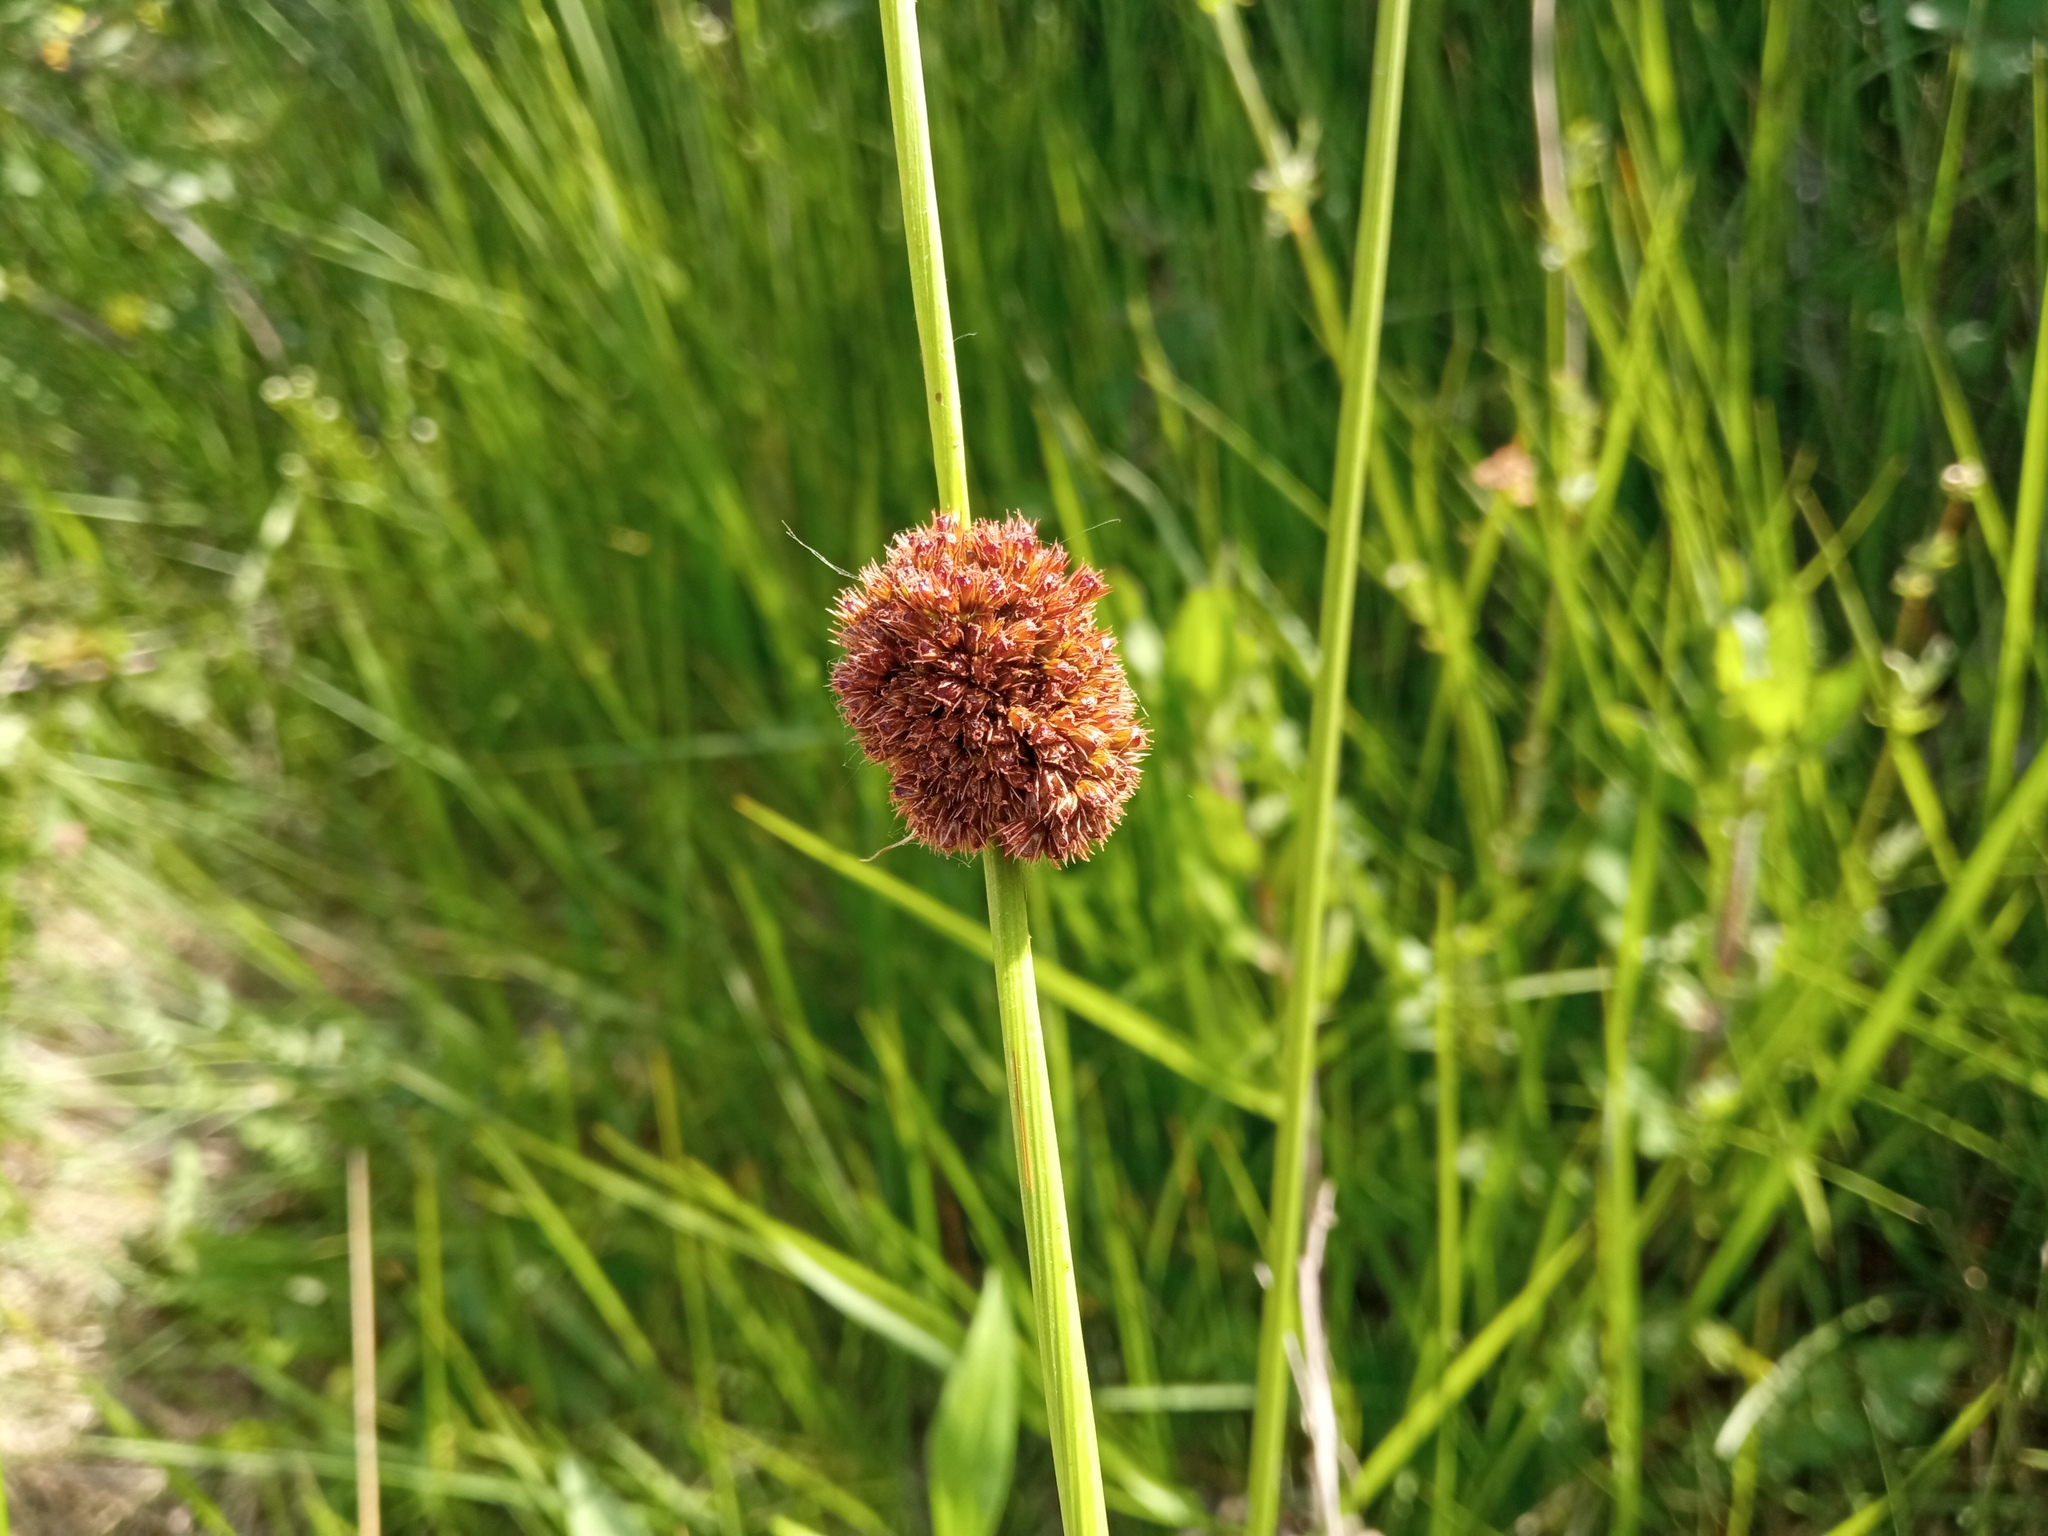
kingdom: Plantae
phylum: Tracheophyta
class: Liliopsida
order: Poales
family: Juncaceae
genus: Juncus
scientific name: Juncus conglomeratus
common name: Compact rush
